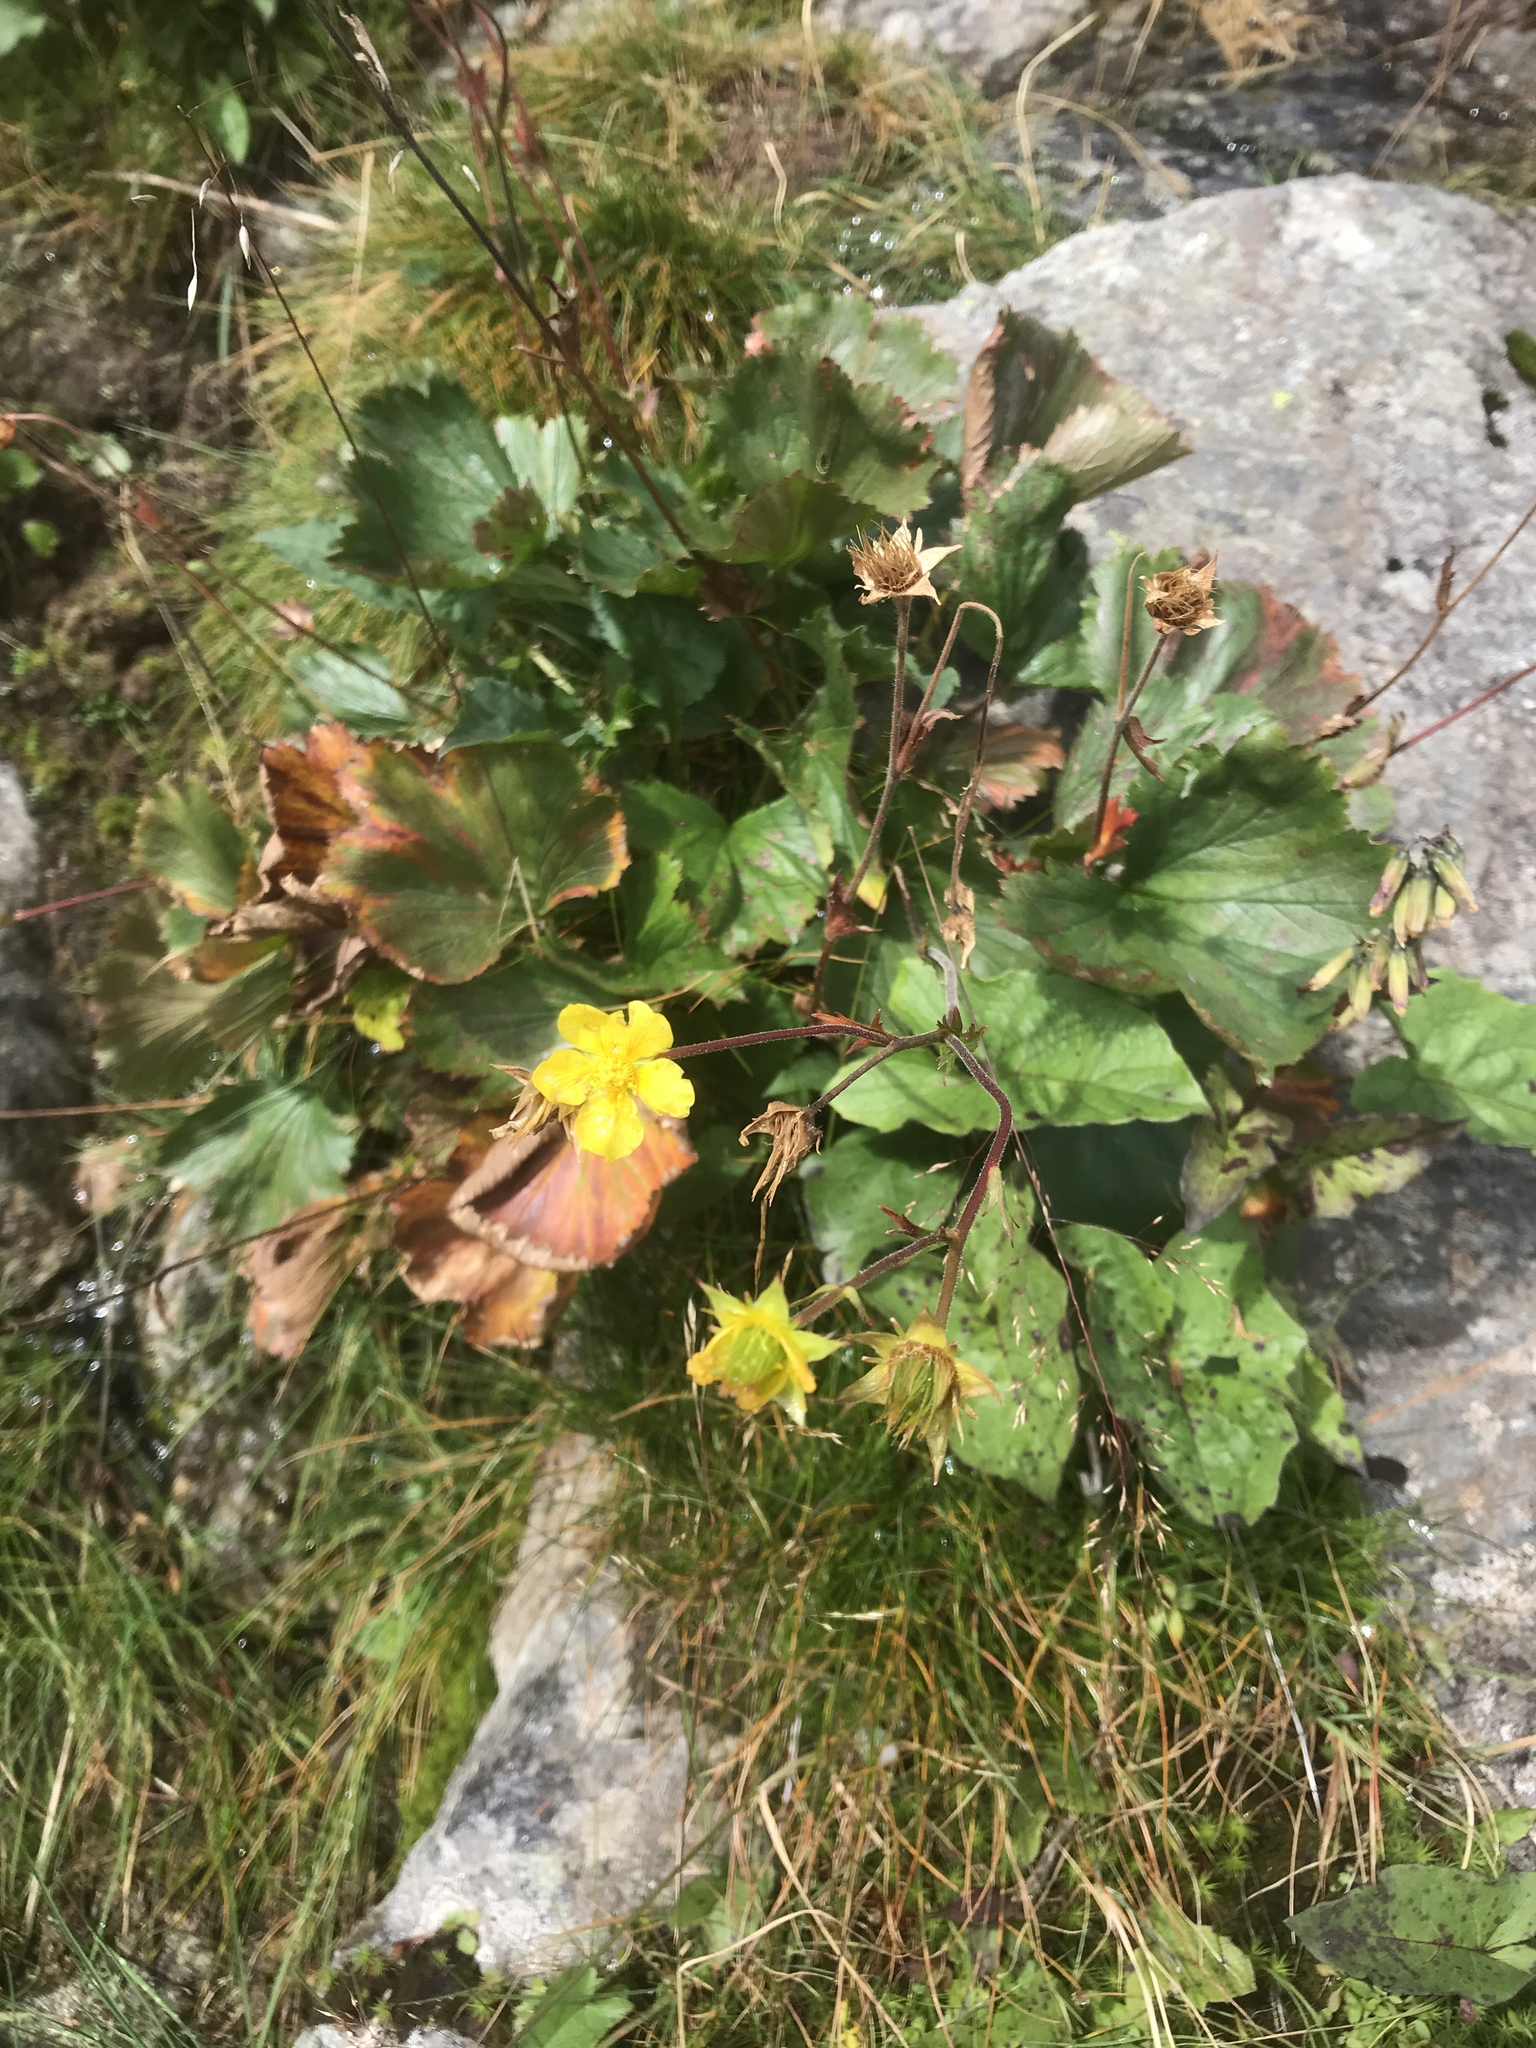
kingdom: Plantae
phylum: Tracheophyta
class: Magnoliopsida
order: Rosales
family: Rosaceae
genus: Geum
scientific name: Geum peckii
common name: Eastern mountain avens
